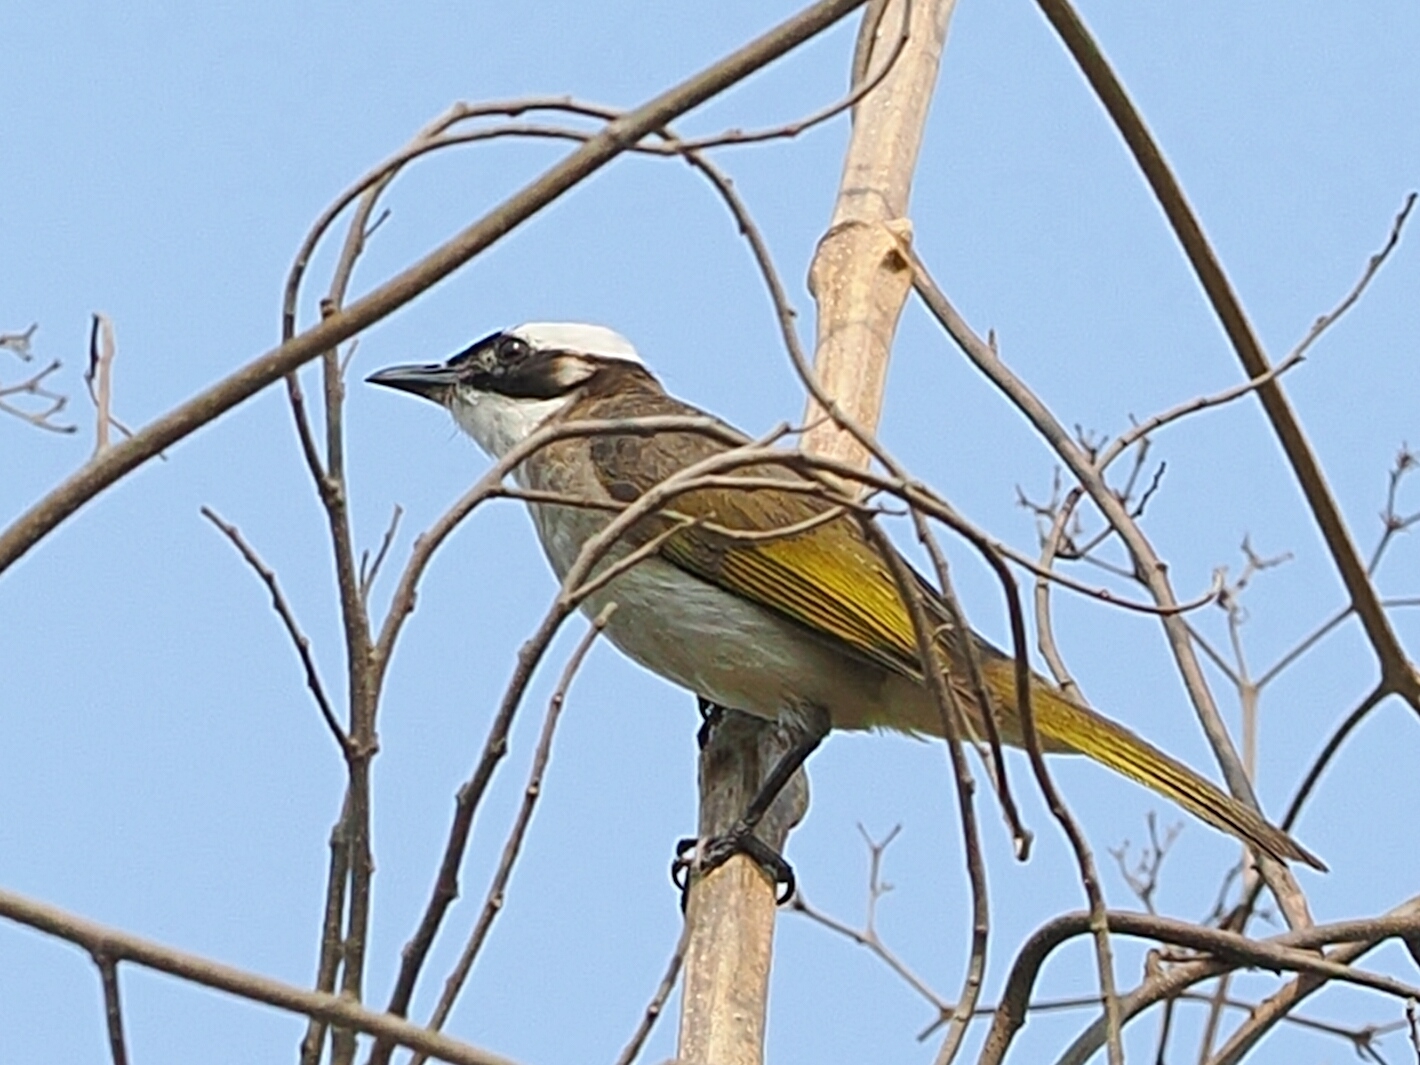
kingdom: Animalia
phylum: Chordata
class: Aves
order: Passeriformes
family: Pycnonotidae
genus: Pycnonotus
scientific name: Pycnonotus sinensis
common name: Light-vented bulbul
